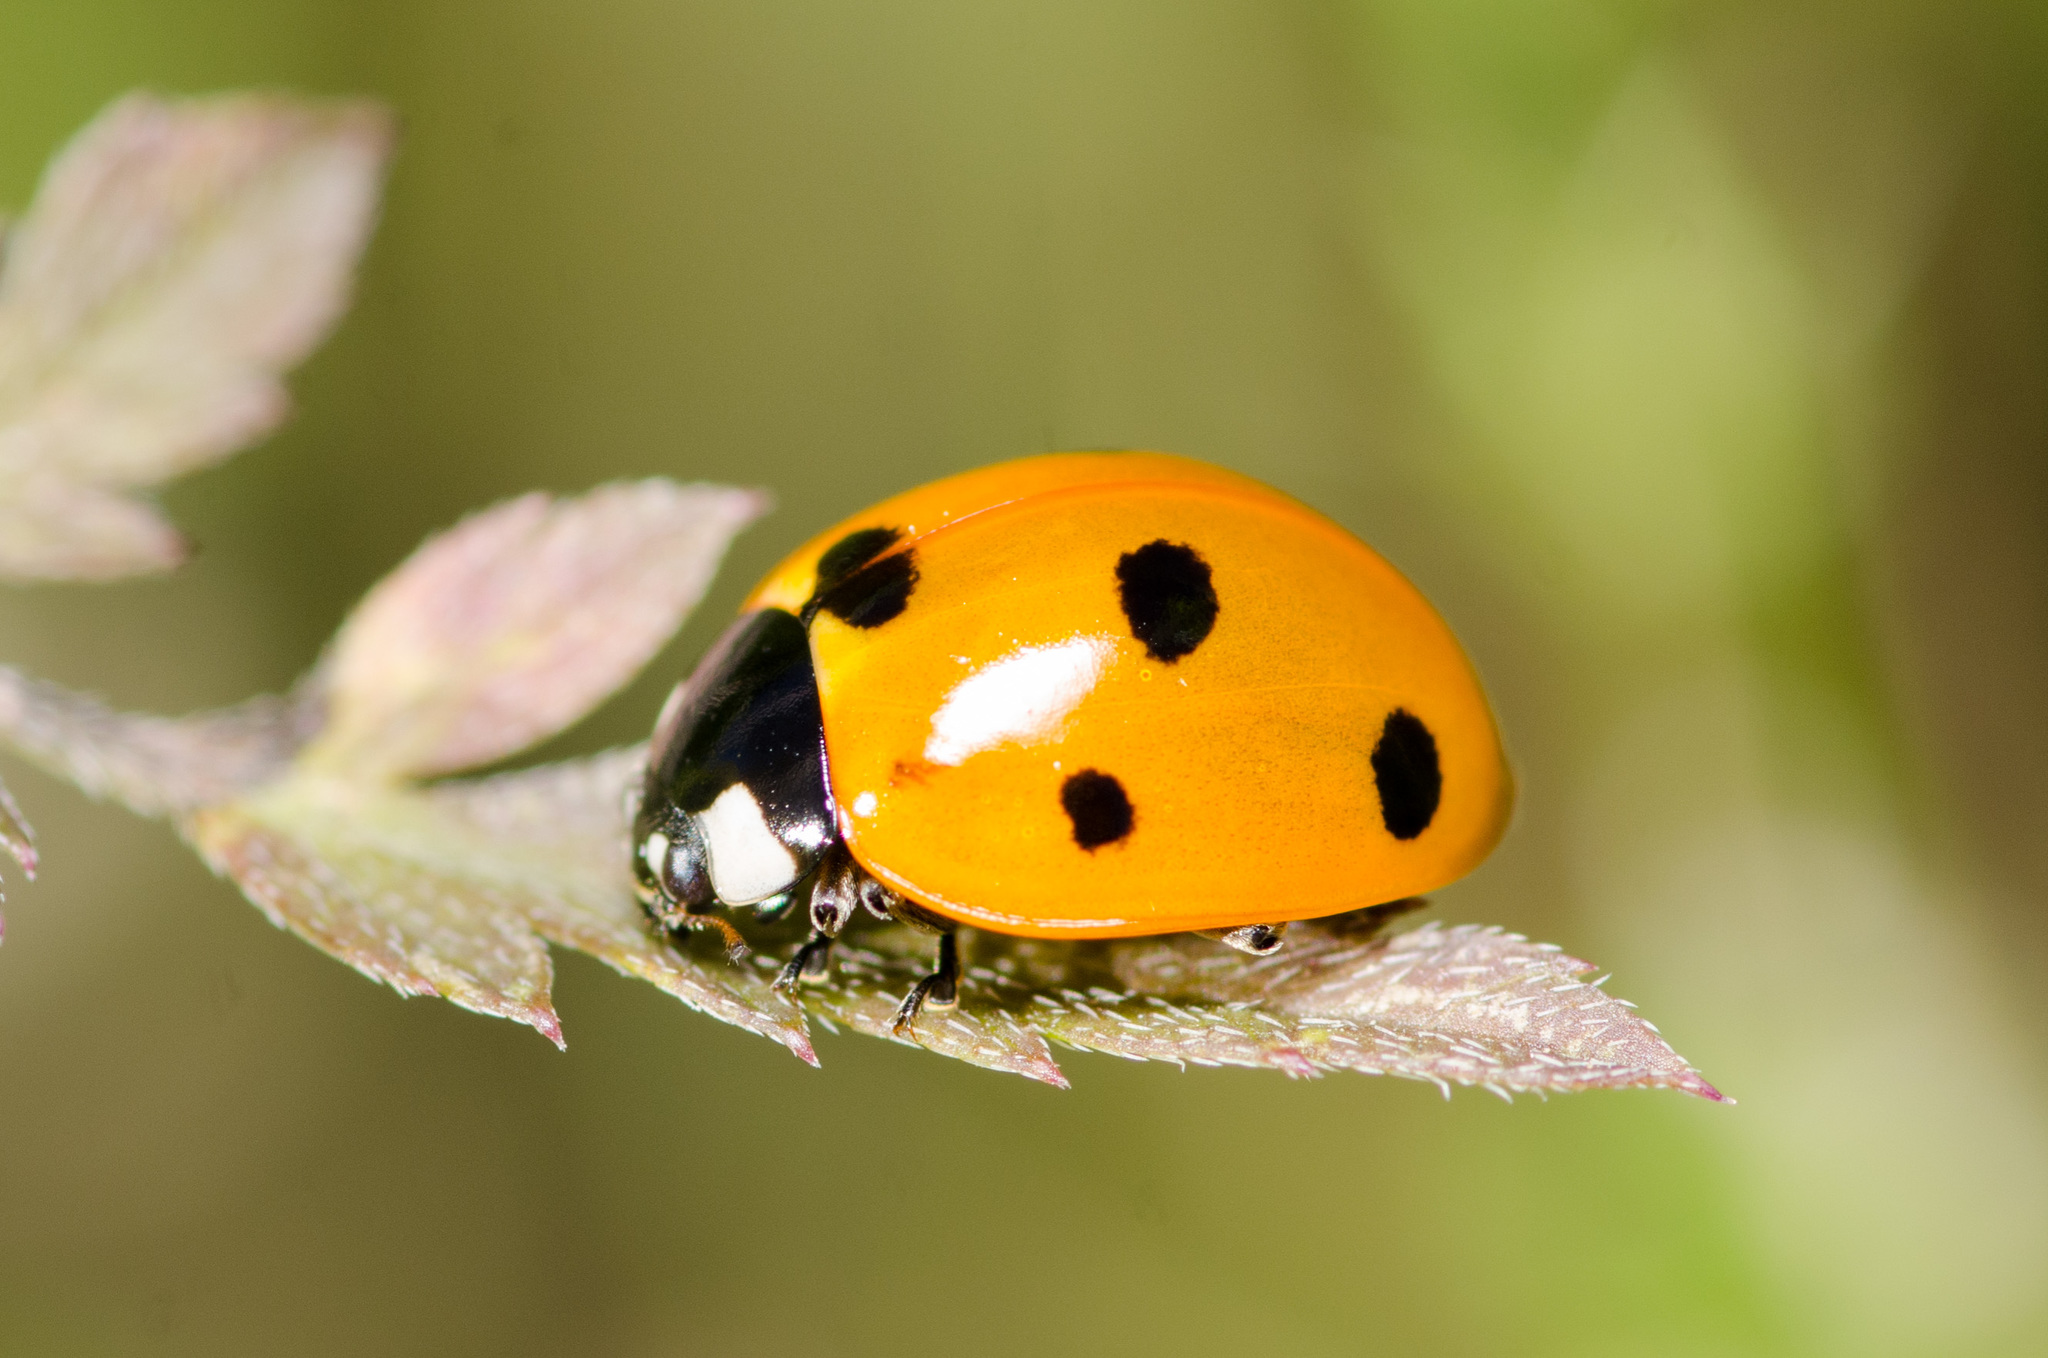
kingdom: Animalia
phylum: Arthropoda
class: Insecta
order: Coleoptera
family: Coccinellidae
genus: Coccinella
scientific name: Coccinella septempunctata
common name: Sevenspotted lady beetle
